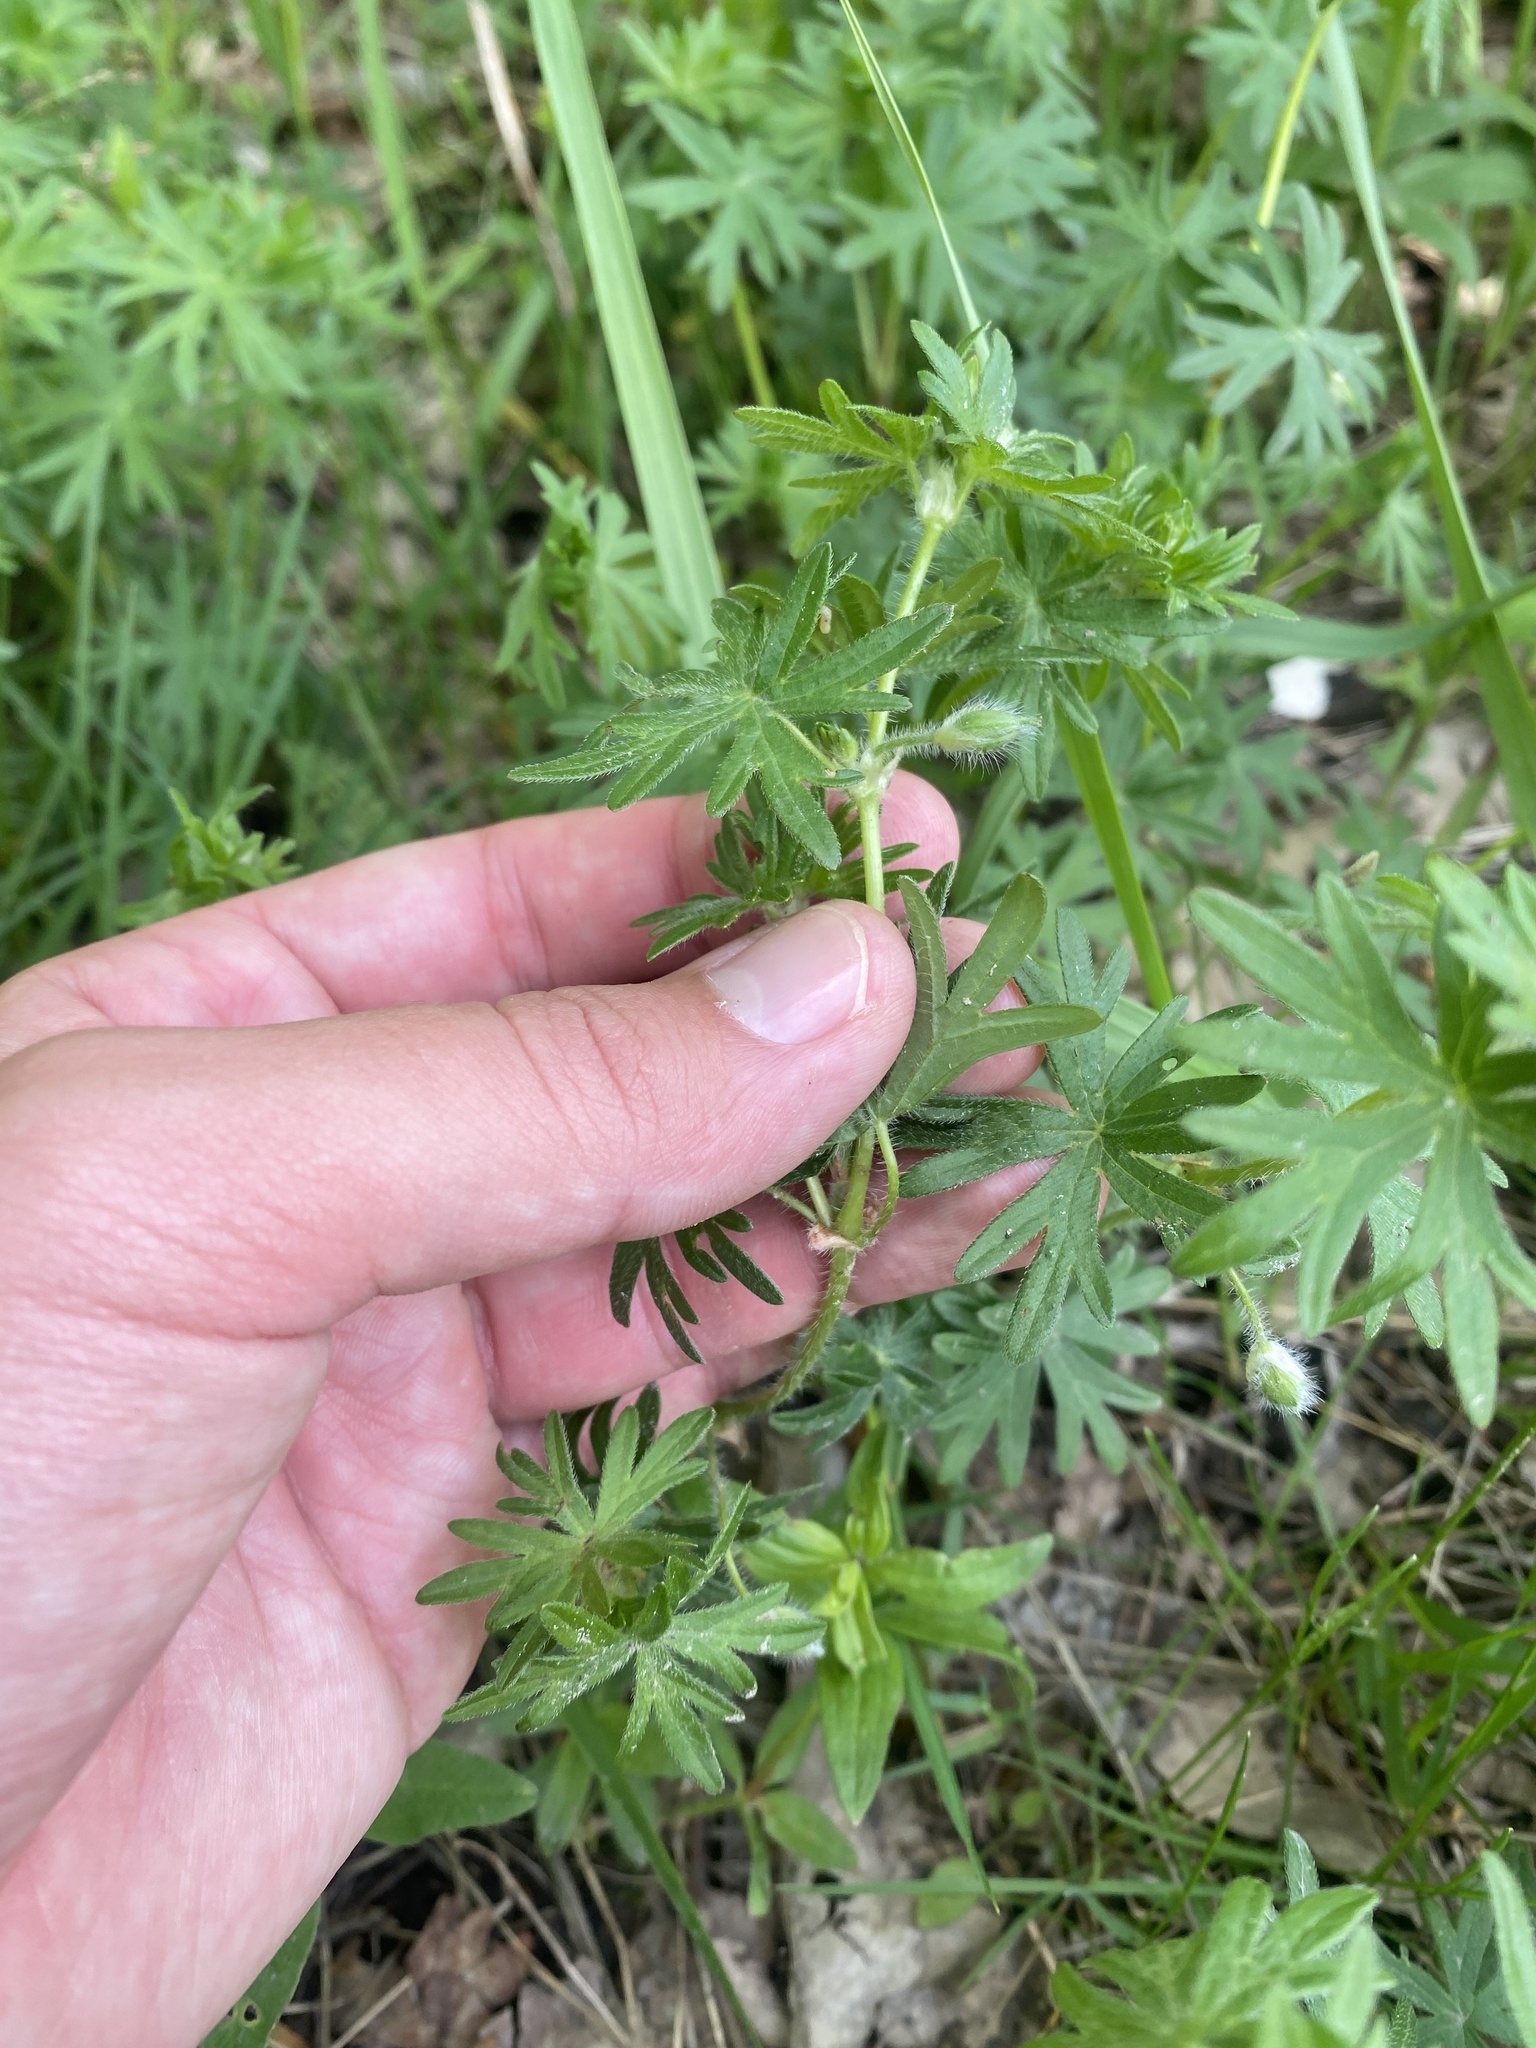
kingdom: Plantae
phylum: Tracheophyta
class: Magnoliopsida
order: Geraniales
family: Geraniaceae
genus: Geranium
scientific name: Geranium sanguineum
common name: Bloody crane's-bill
